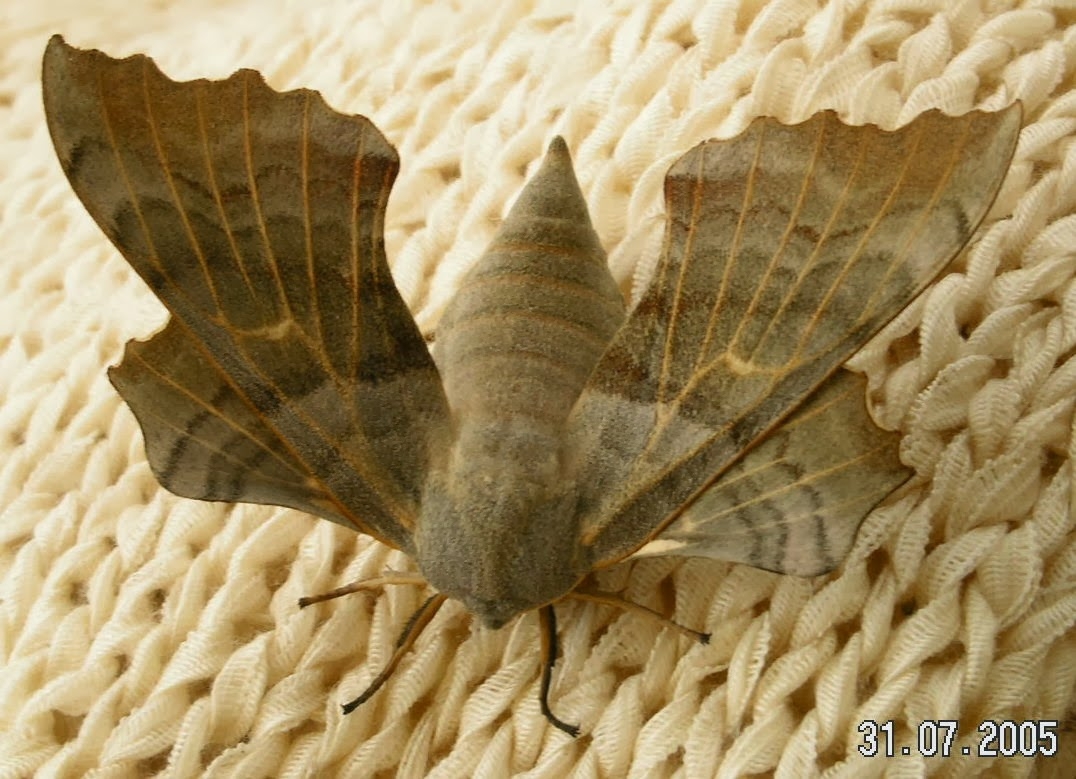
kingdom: Animalia
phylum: Arthropoda
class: Insecta
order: Lepidoptera
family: Sphingidae
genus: Laothoe
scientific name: Laothoe populi
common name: Poplar hawk-moth
